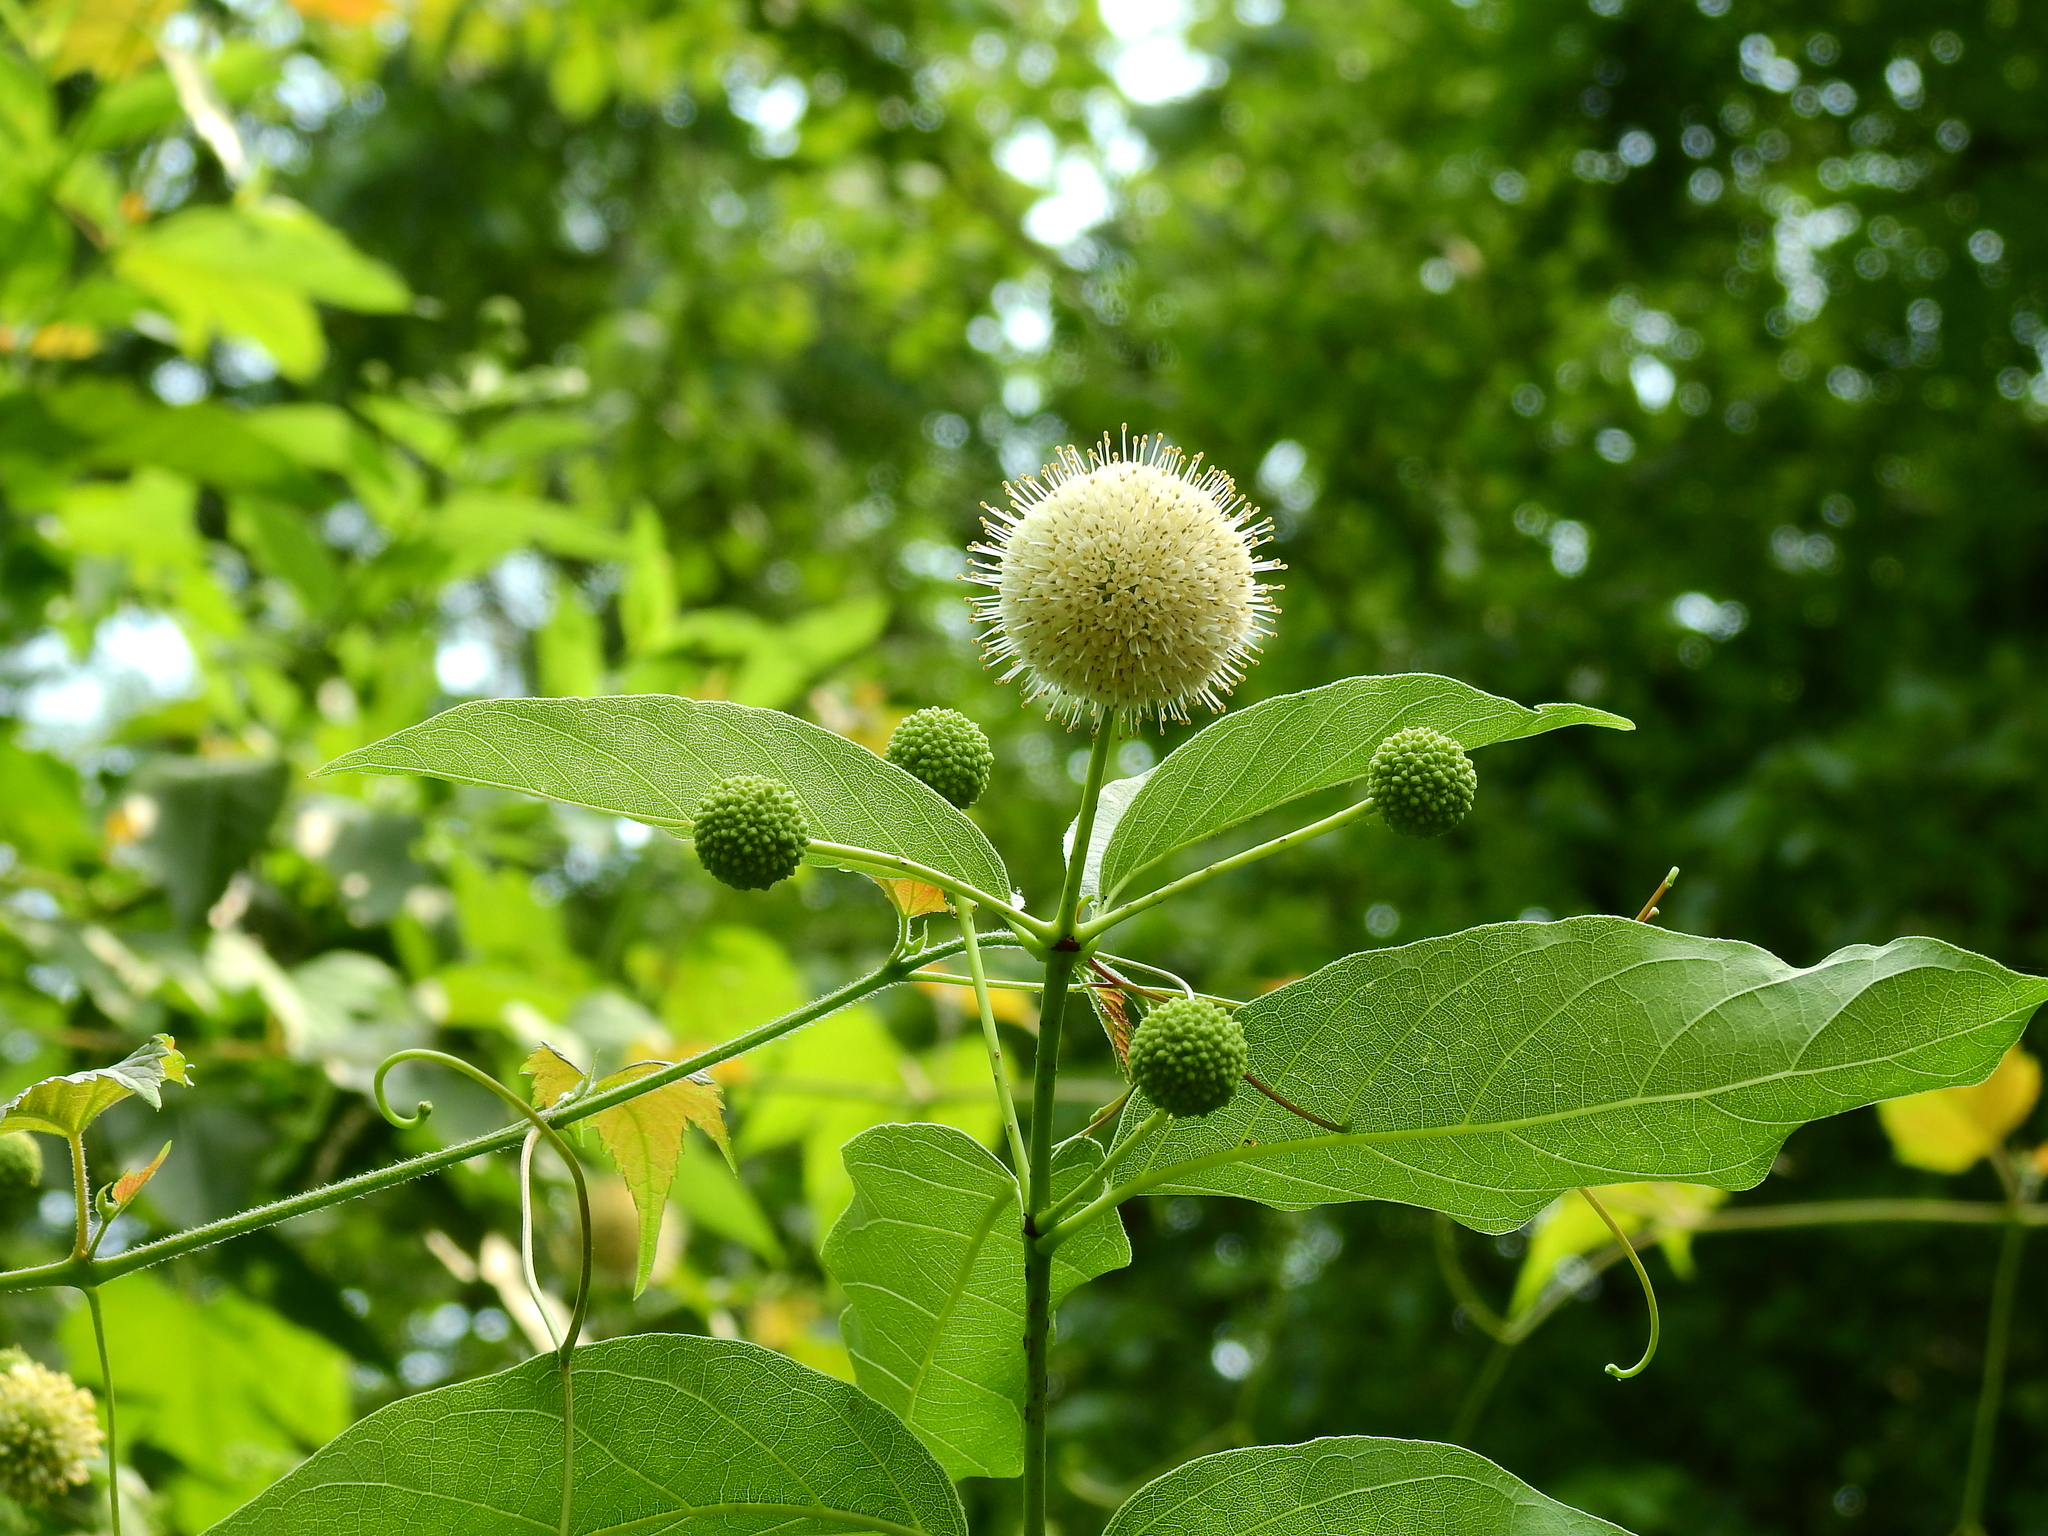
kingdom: Plantae
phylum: Tracheophyta
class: Magnoliopsida
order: Gentianales
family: Rubiaceae
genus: Cephalanthus
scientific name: Cephalanthus occidentalis
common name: Button-willow
